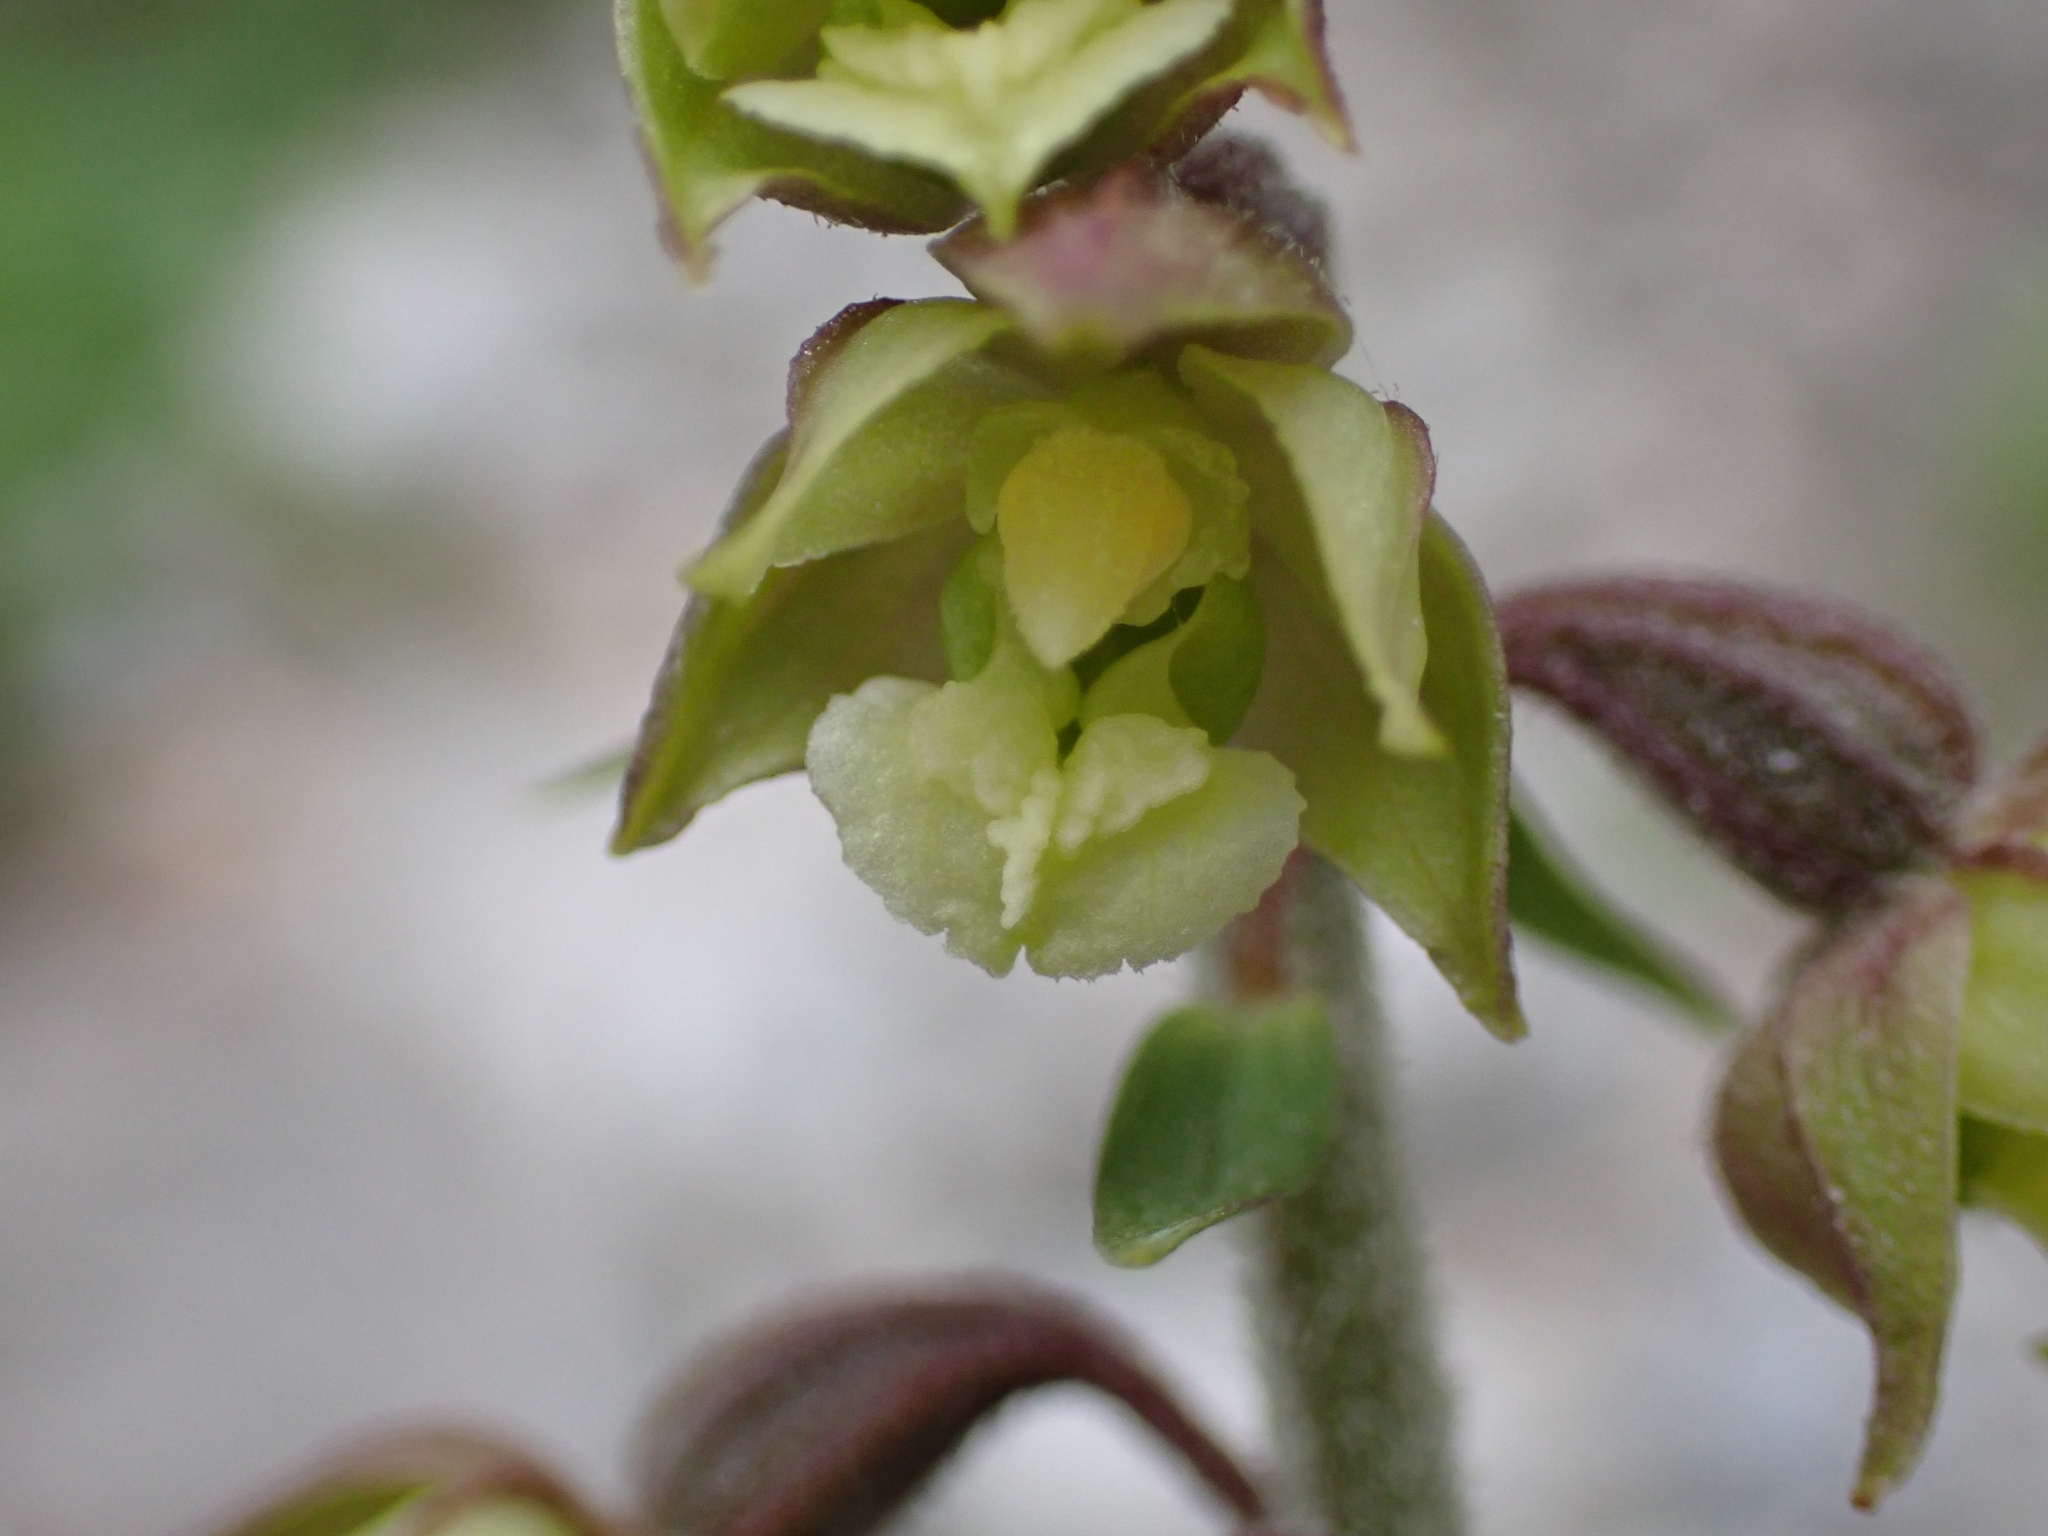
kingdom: Plantae
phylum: Tracheophyta
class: Liliopsida
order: Asparagales
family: Orchidaceae
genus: Epipactis
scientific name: Epipactis atrorubens
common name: Dark-red helleborine
